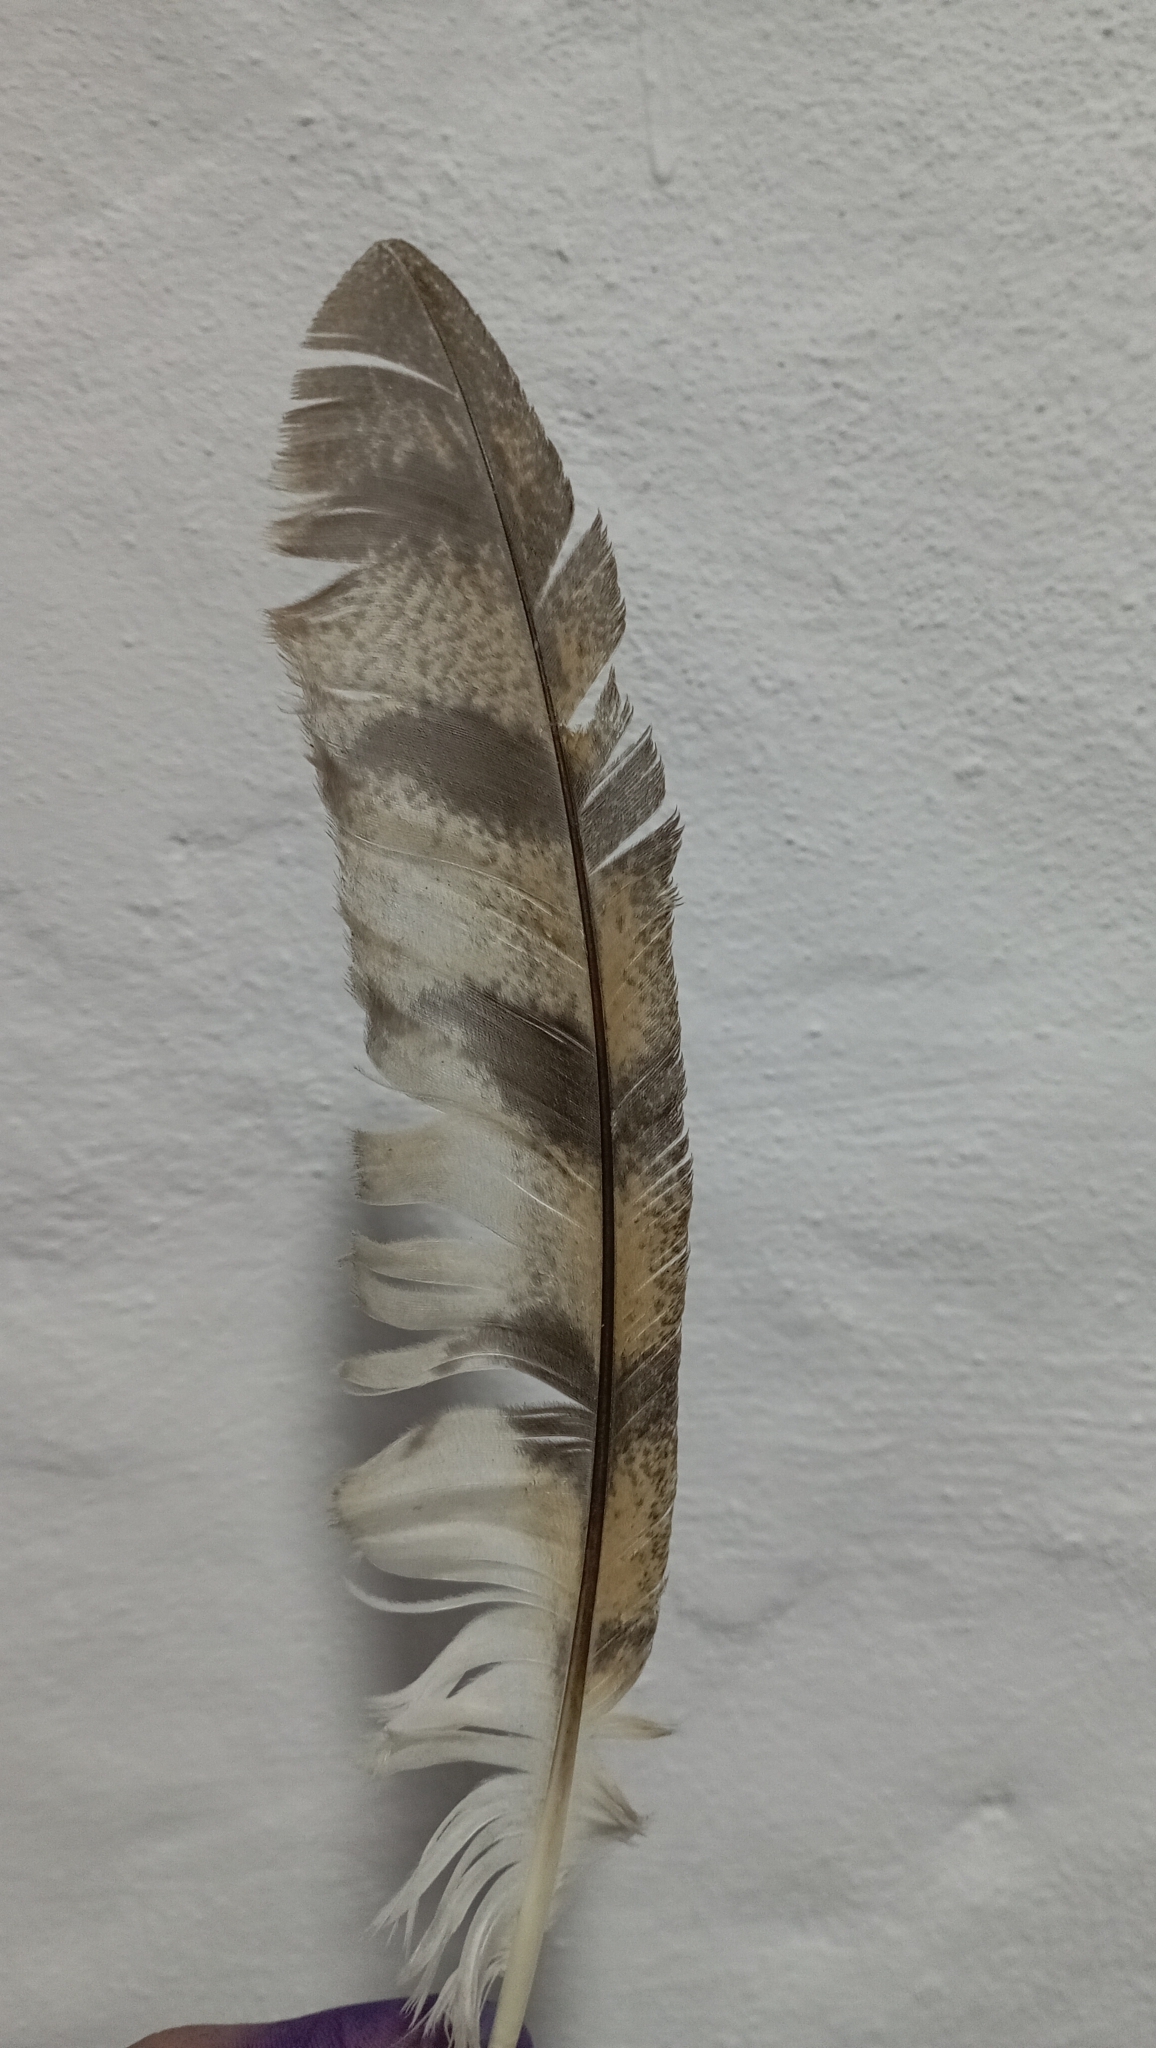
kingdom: Animalia
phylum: Chordata
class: Aves
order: Strigiformes
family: Tytonidae
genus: Tyto
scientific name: Tyto alba
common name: Barn owl
